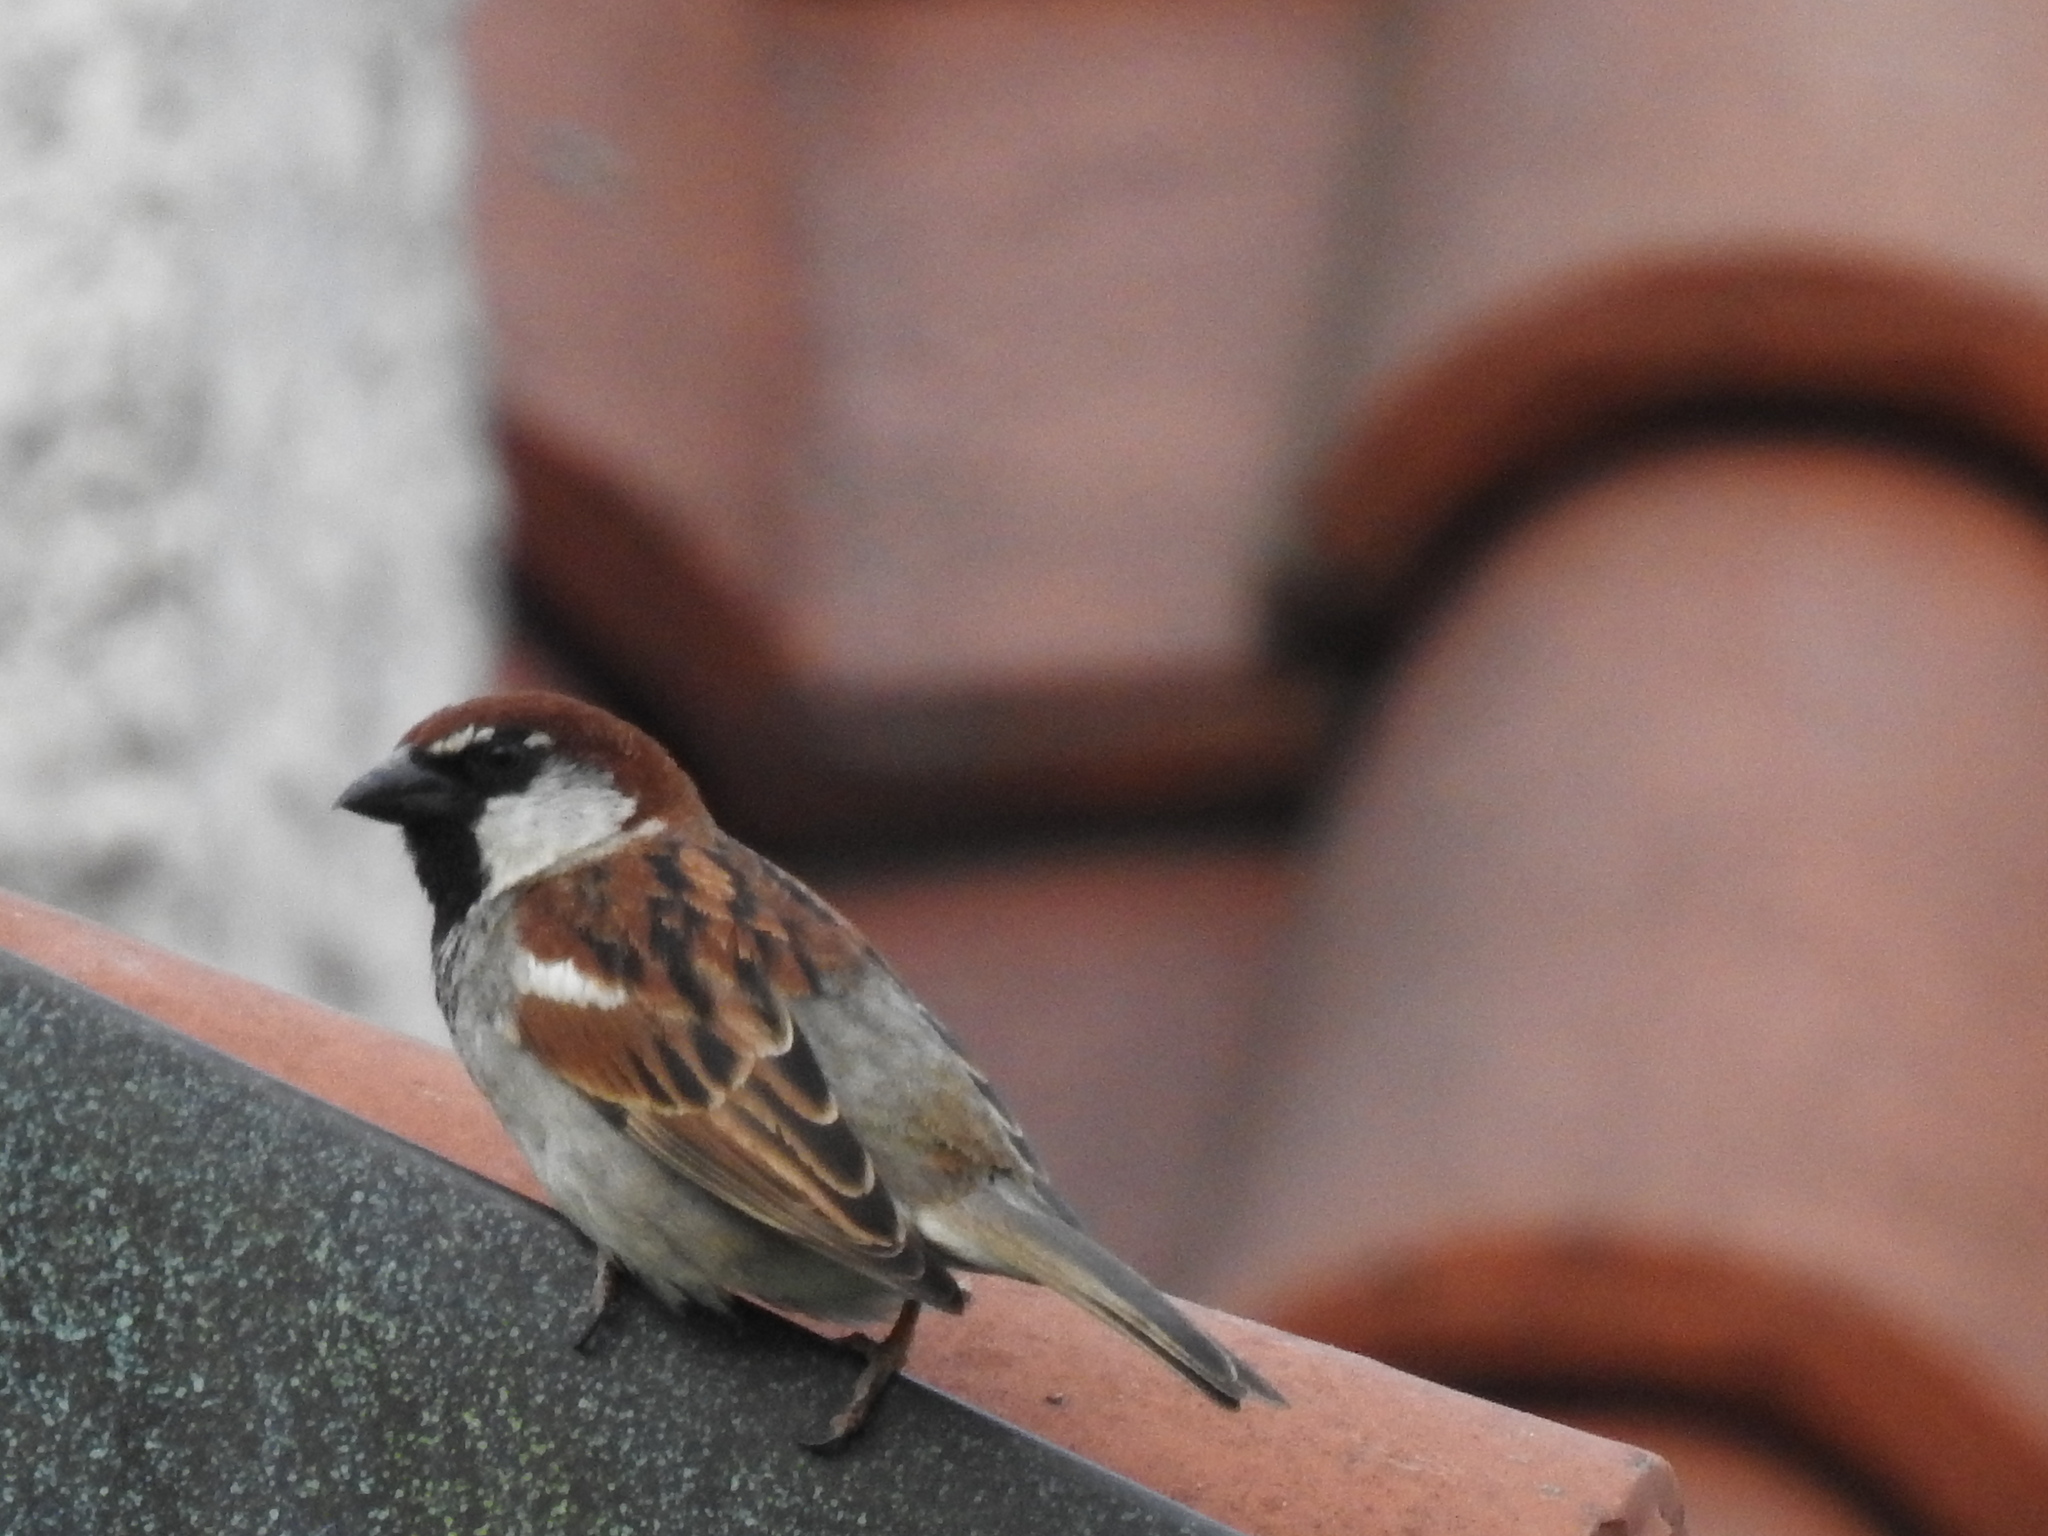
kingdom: Animalia
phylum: Chordata
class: Aves
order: Passeriformes
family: Passeridae
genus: Passer
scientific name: Passer italiae
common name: Italian sparrow
